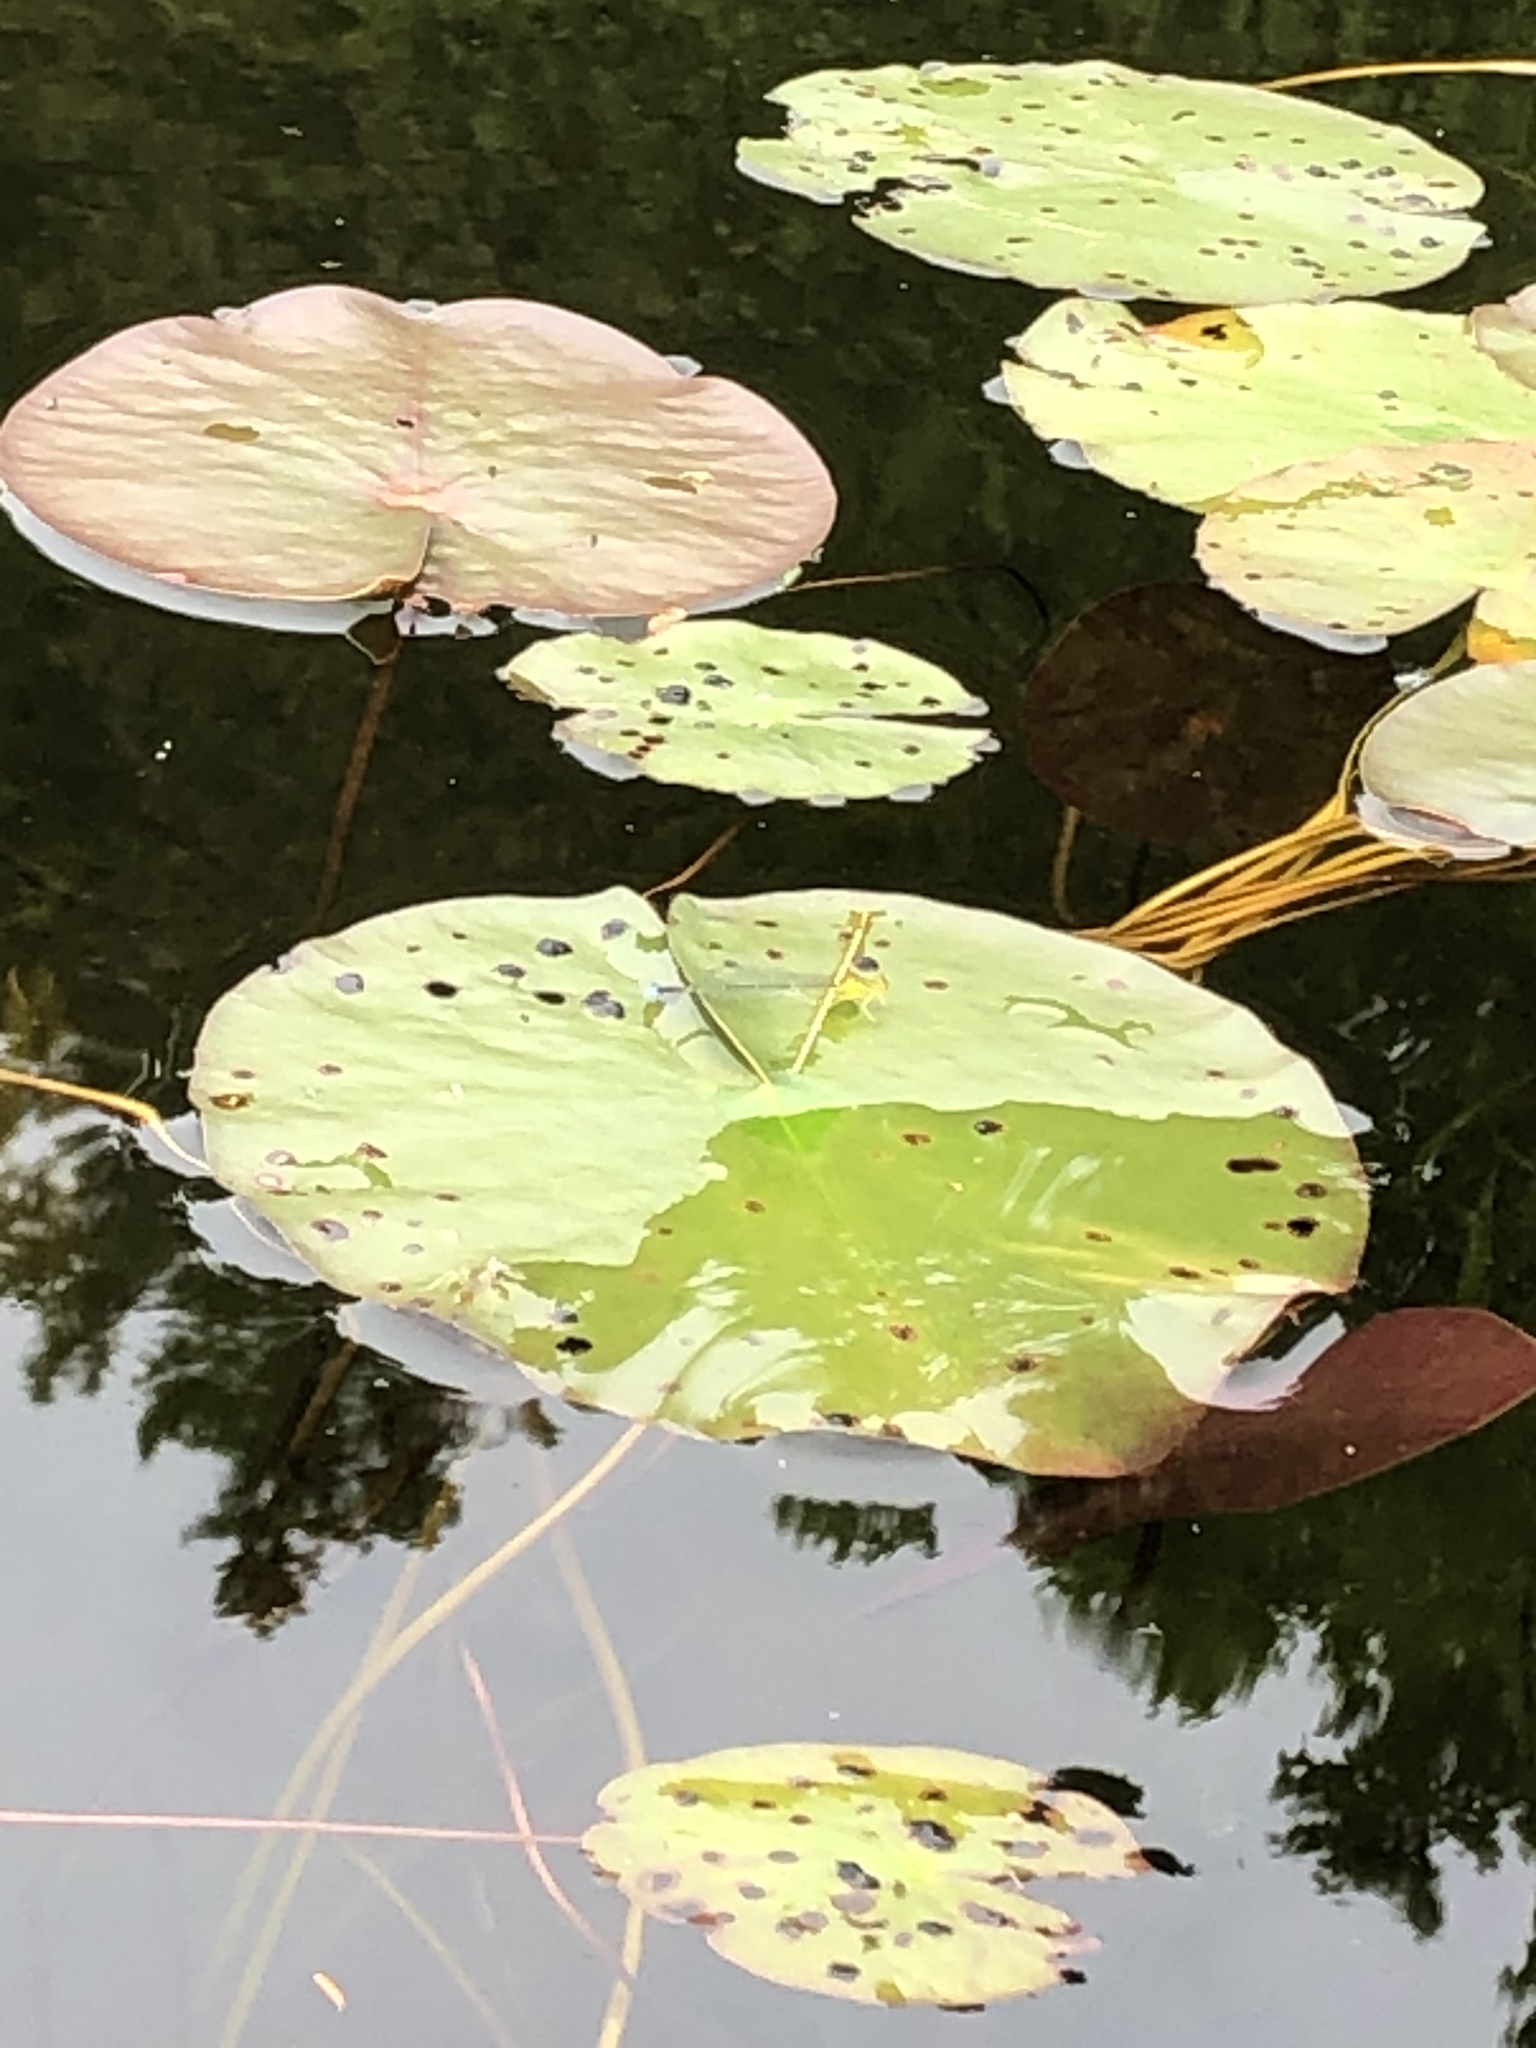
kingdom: Plantae
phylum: Tracheophyta
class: Magnoliopsida
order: Nymphaeales
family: Nymphaeaceae
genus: Nymphaea
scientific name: Nymphaea odorata
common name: Fragrant water-lily
